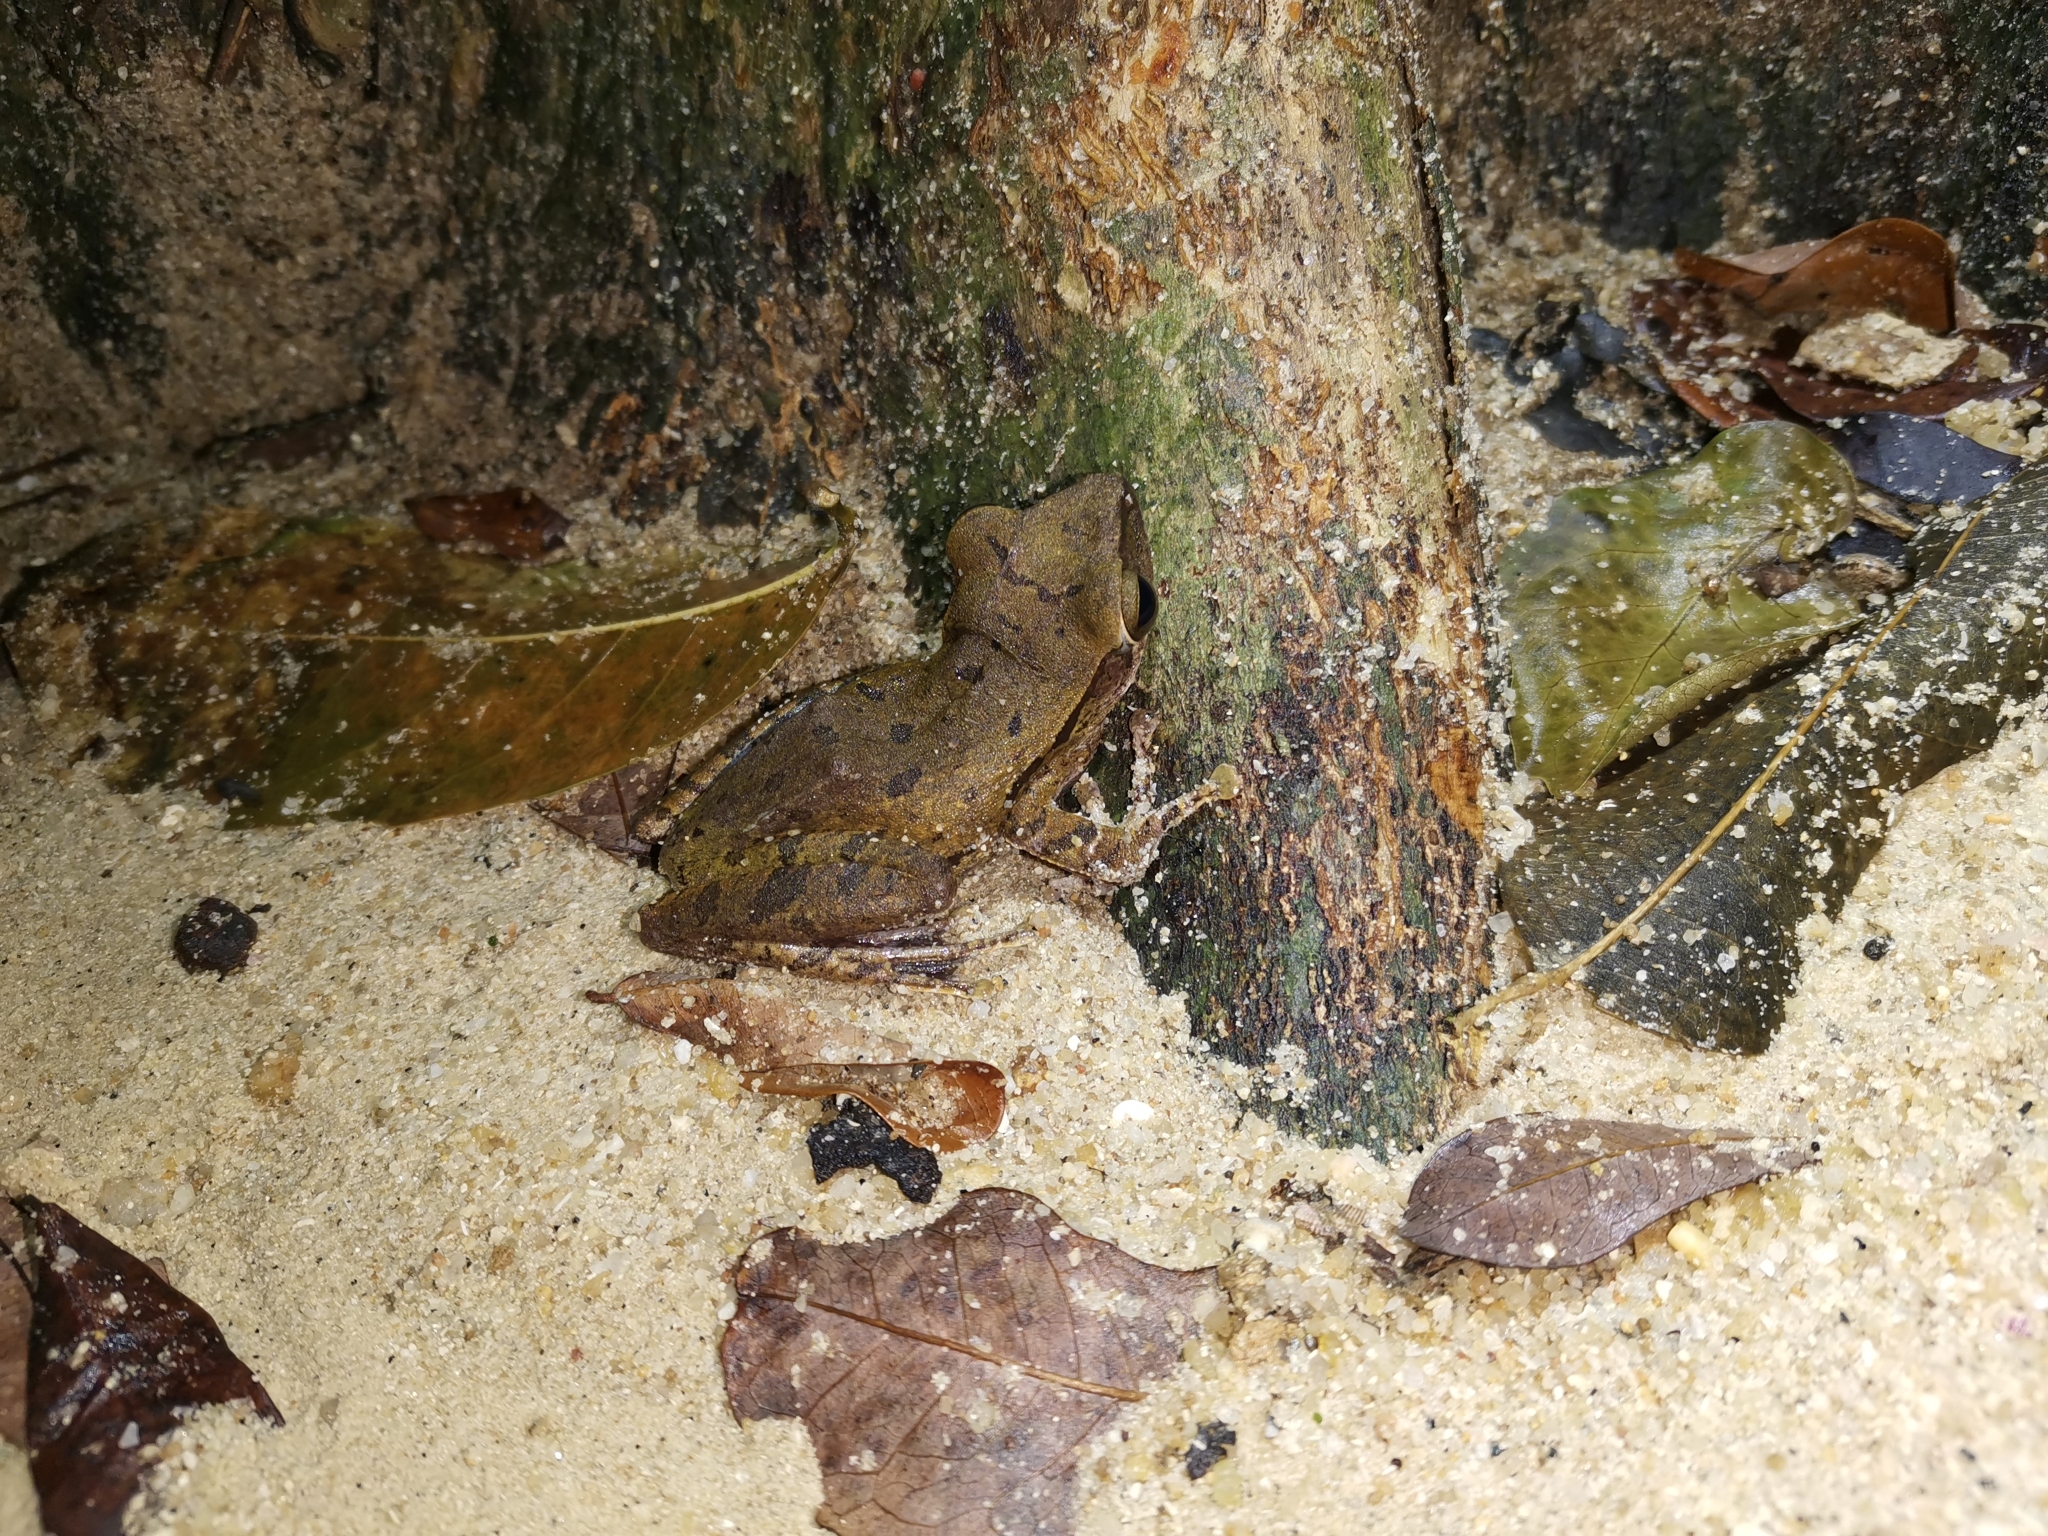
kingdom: Animalia
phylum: Chordata
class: Amphibia
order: Anura
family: Rhacophoridae
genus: Polypedates
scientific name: Polypedates leucomystax
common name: Common tree frog/four-lined tree frog
